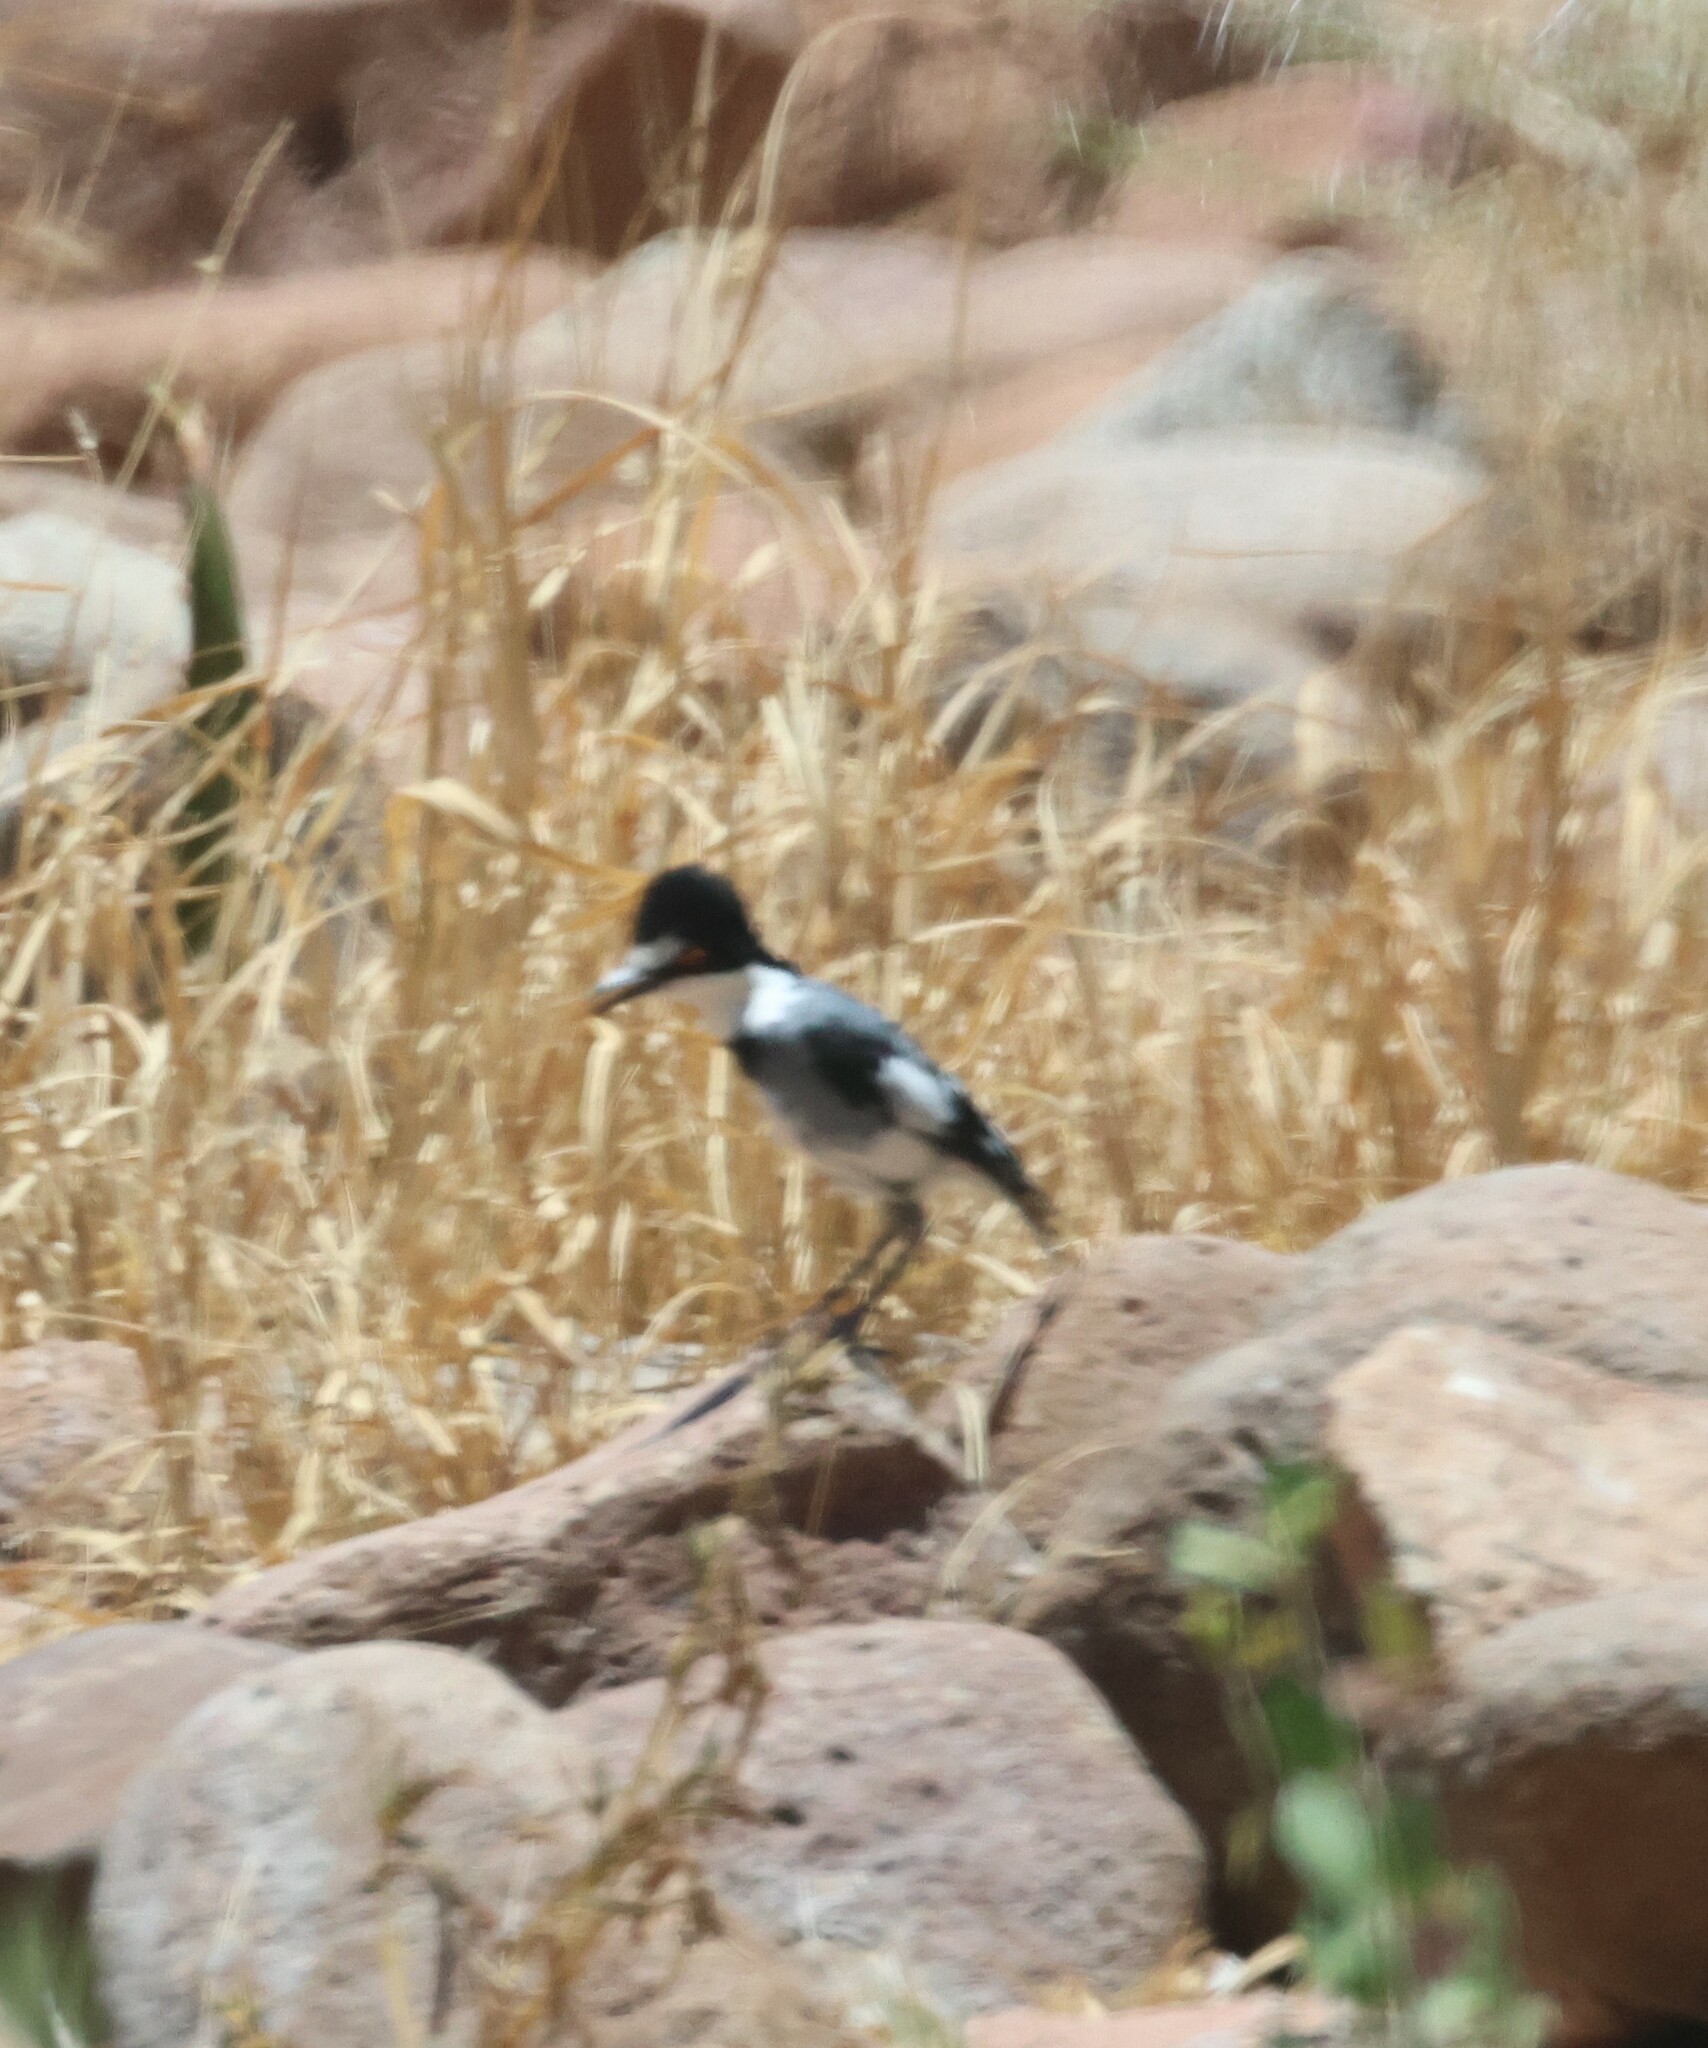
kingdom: Animalia
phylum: Chordata
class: Aves
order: Passeriformes
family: Platysteiridae
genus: Lanioturdus
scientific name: Lanioturdus torquatus
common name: White-tailed shrike
